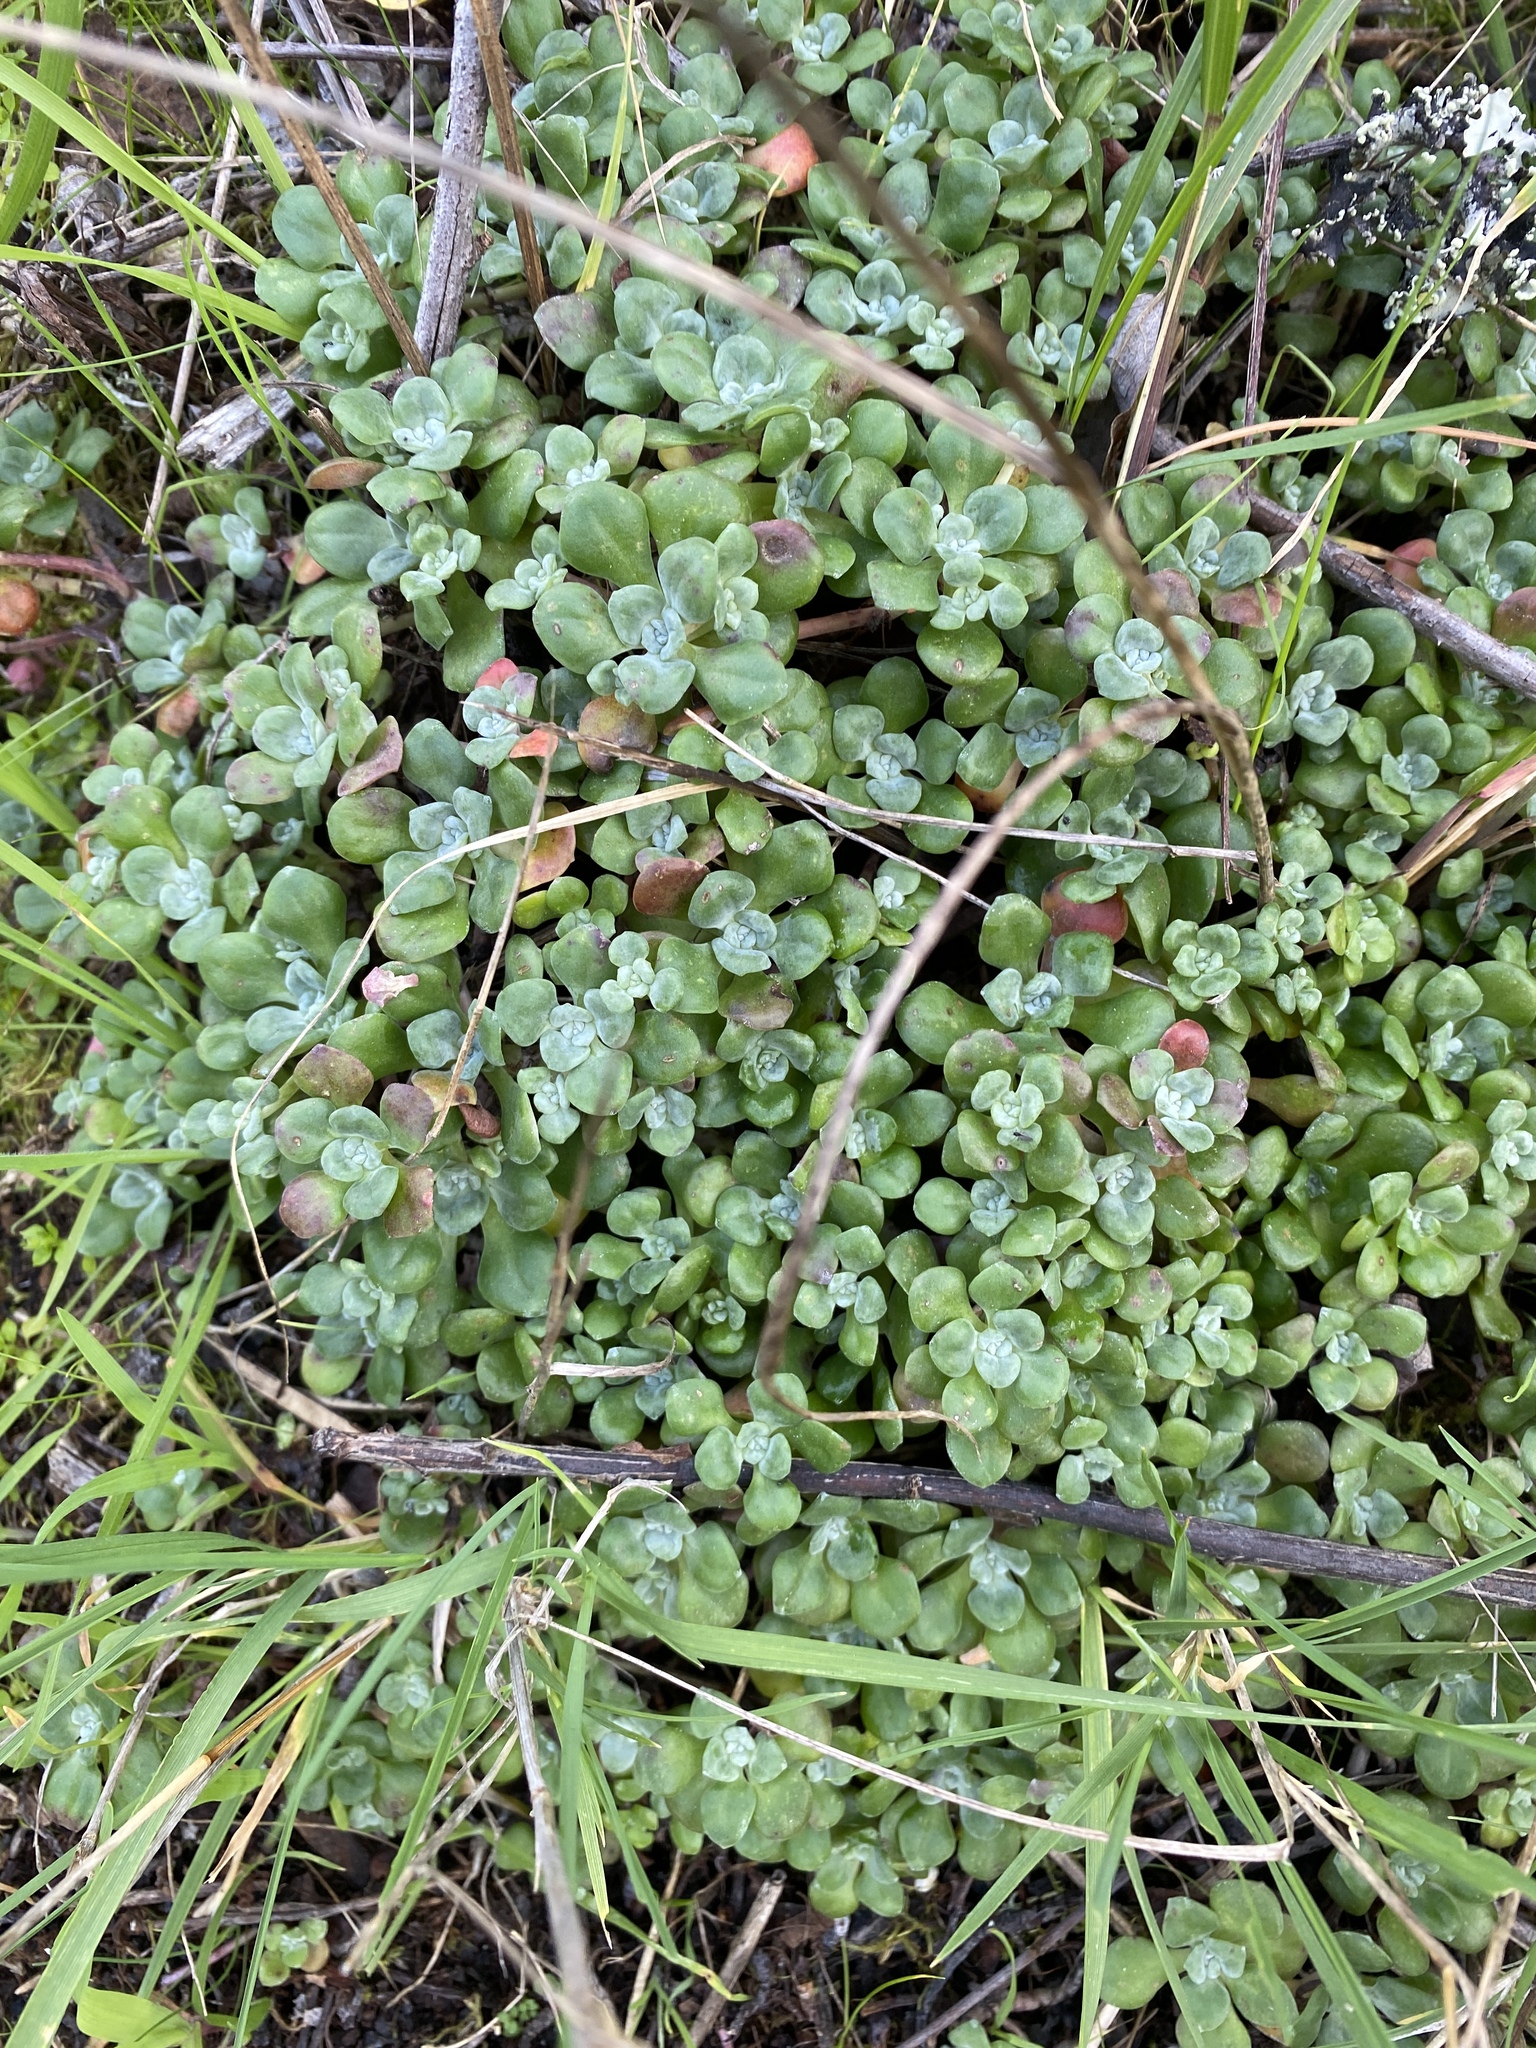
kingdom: Plantae
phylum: Tracheophyta
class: Magnoliopsida
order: Saxifragales
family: Crassulaceae
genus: Sedum
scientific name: Sedum spathulifolium
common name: Colorado stonecrop
